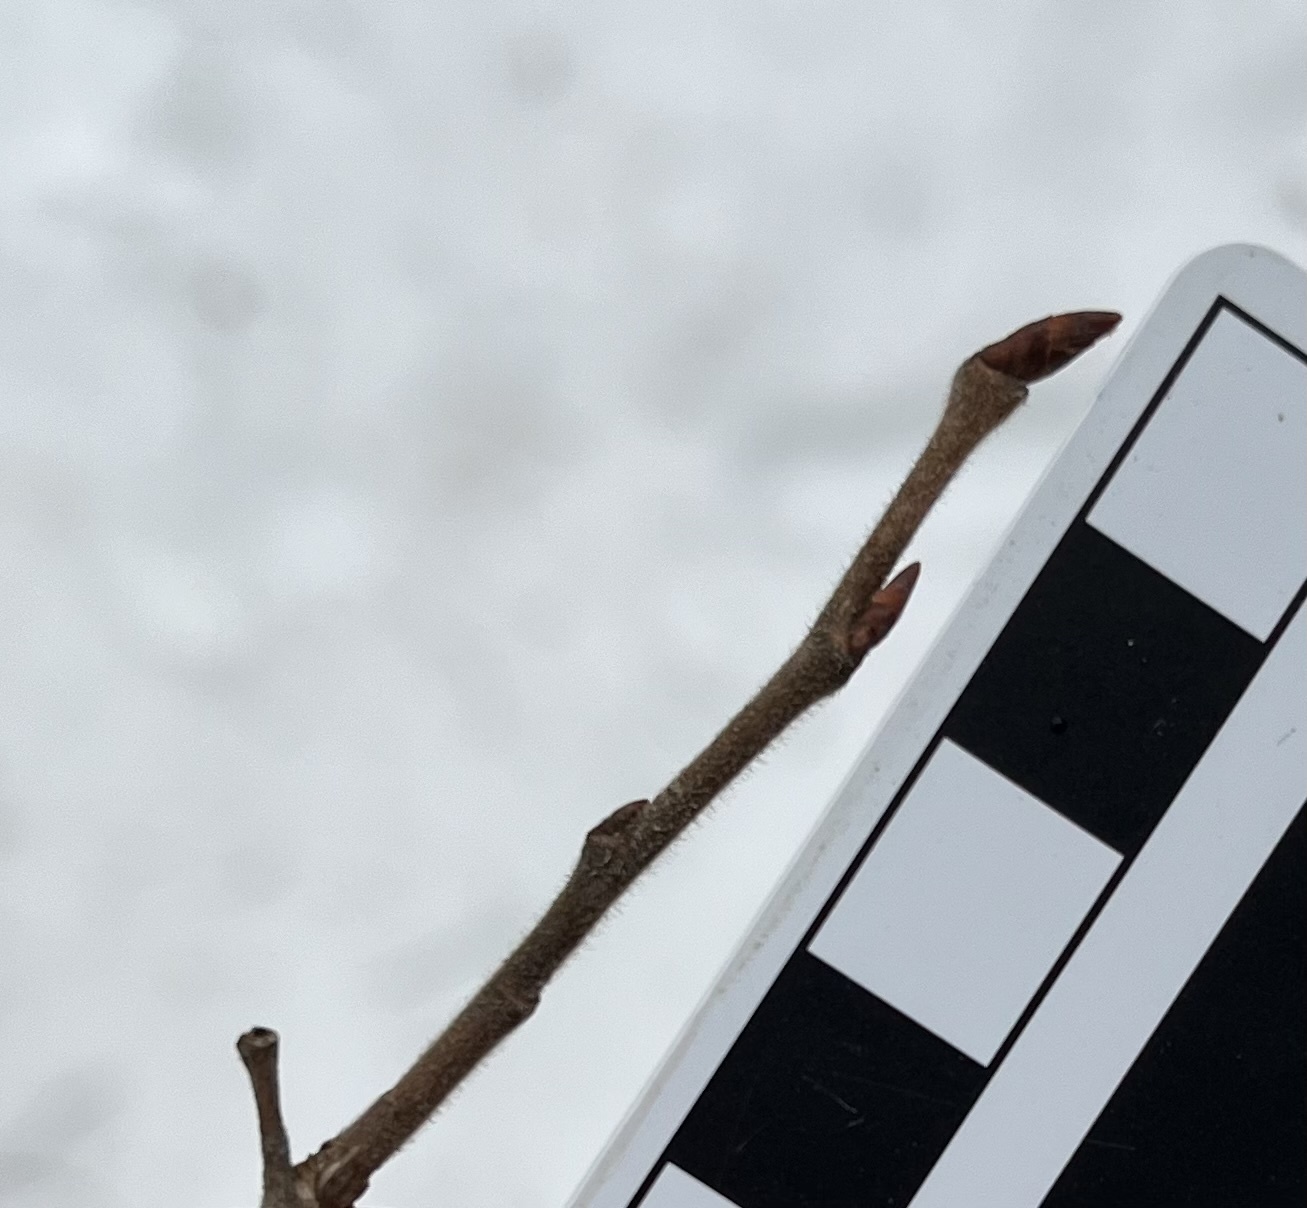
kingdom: Plantae
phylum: Tracheophyta
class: Magnoliopsida
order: Rosales
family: Ulmaceae
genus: Ulmus
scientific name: Ulmus americana
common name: American elm
